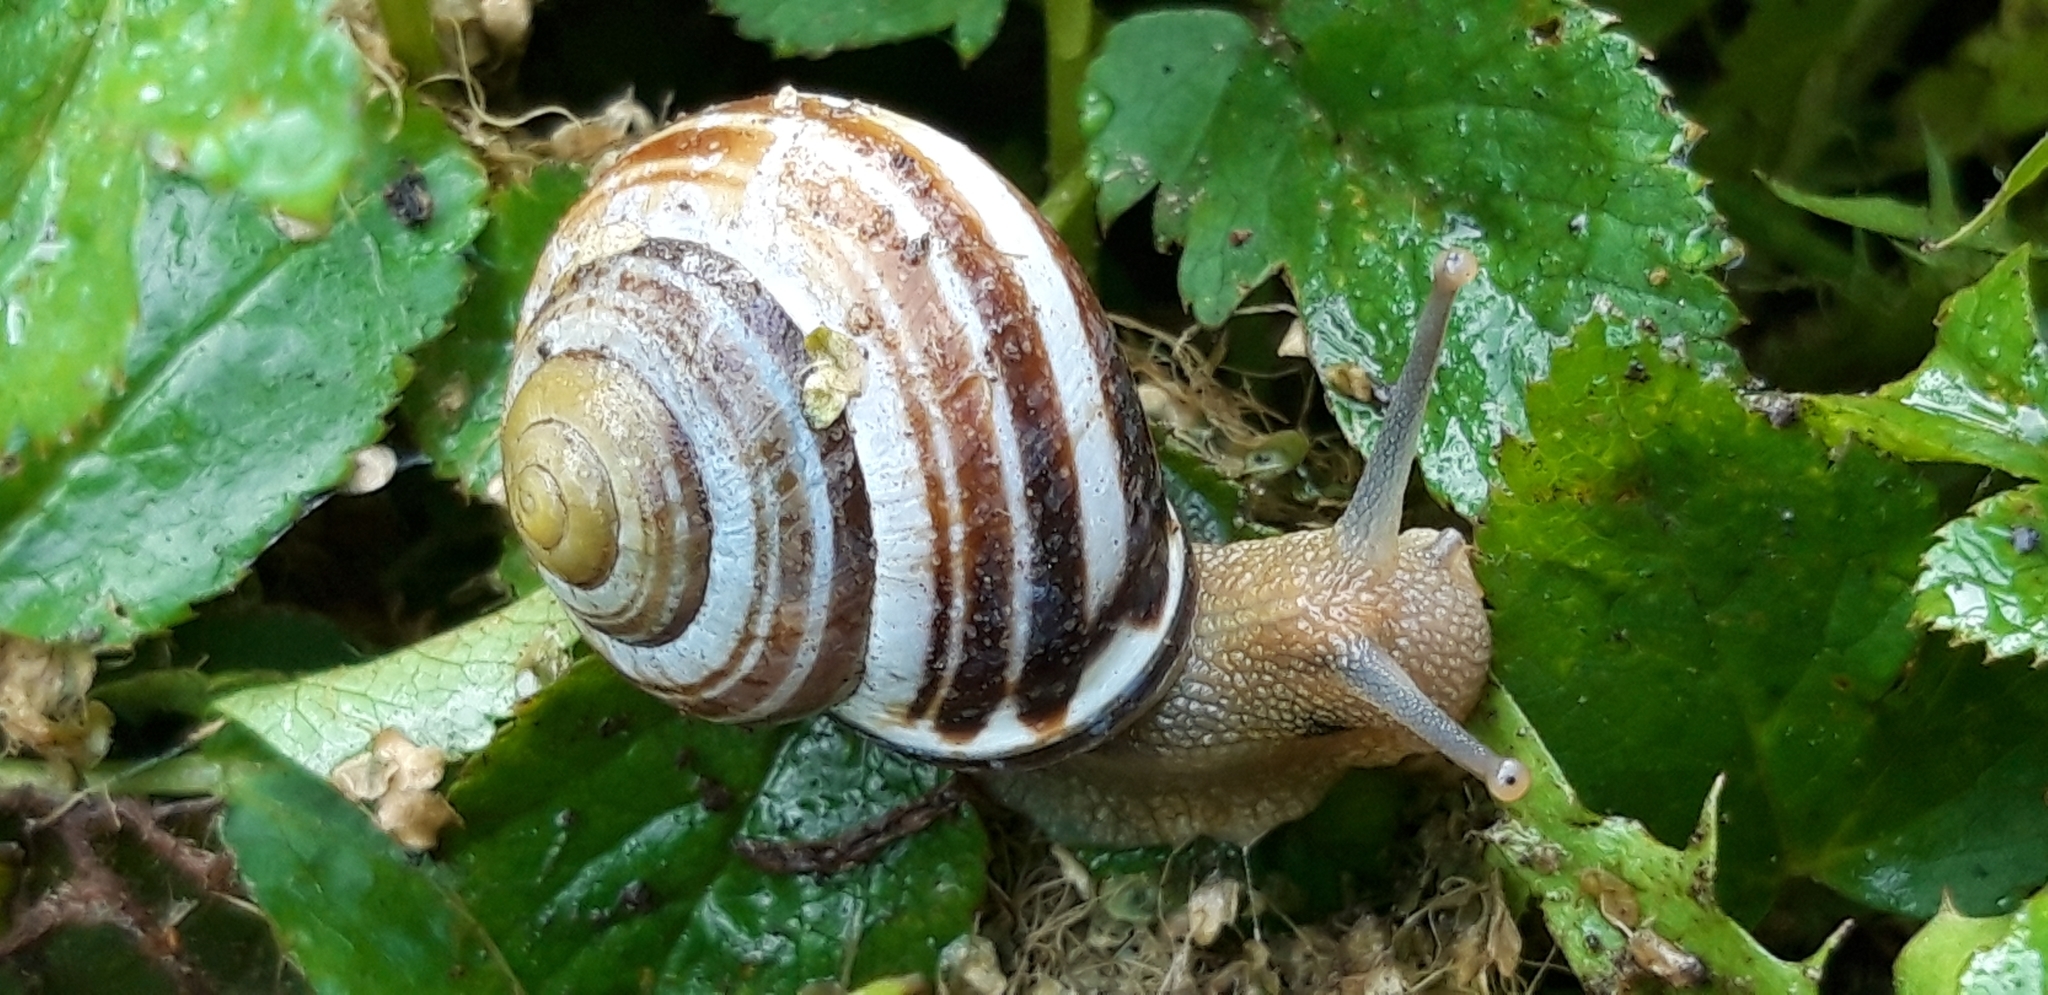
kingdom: Animalia
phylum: Mollusca
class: Gastropoda
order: Stylommatophora
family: Helicidae
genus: Cepaea
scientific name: Cepaea nemoralis
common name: Grovesnail
